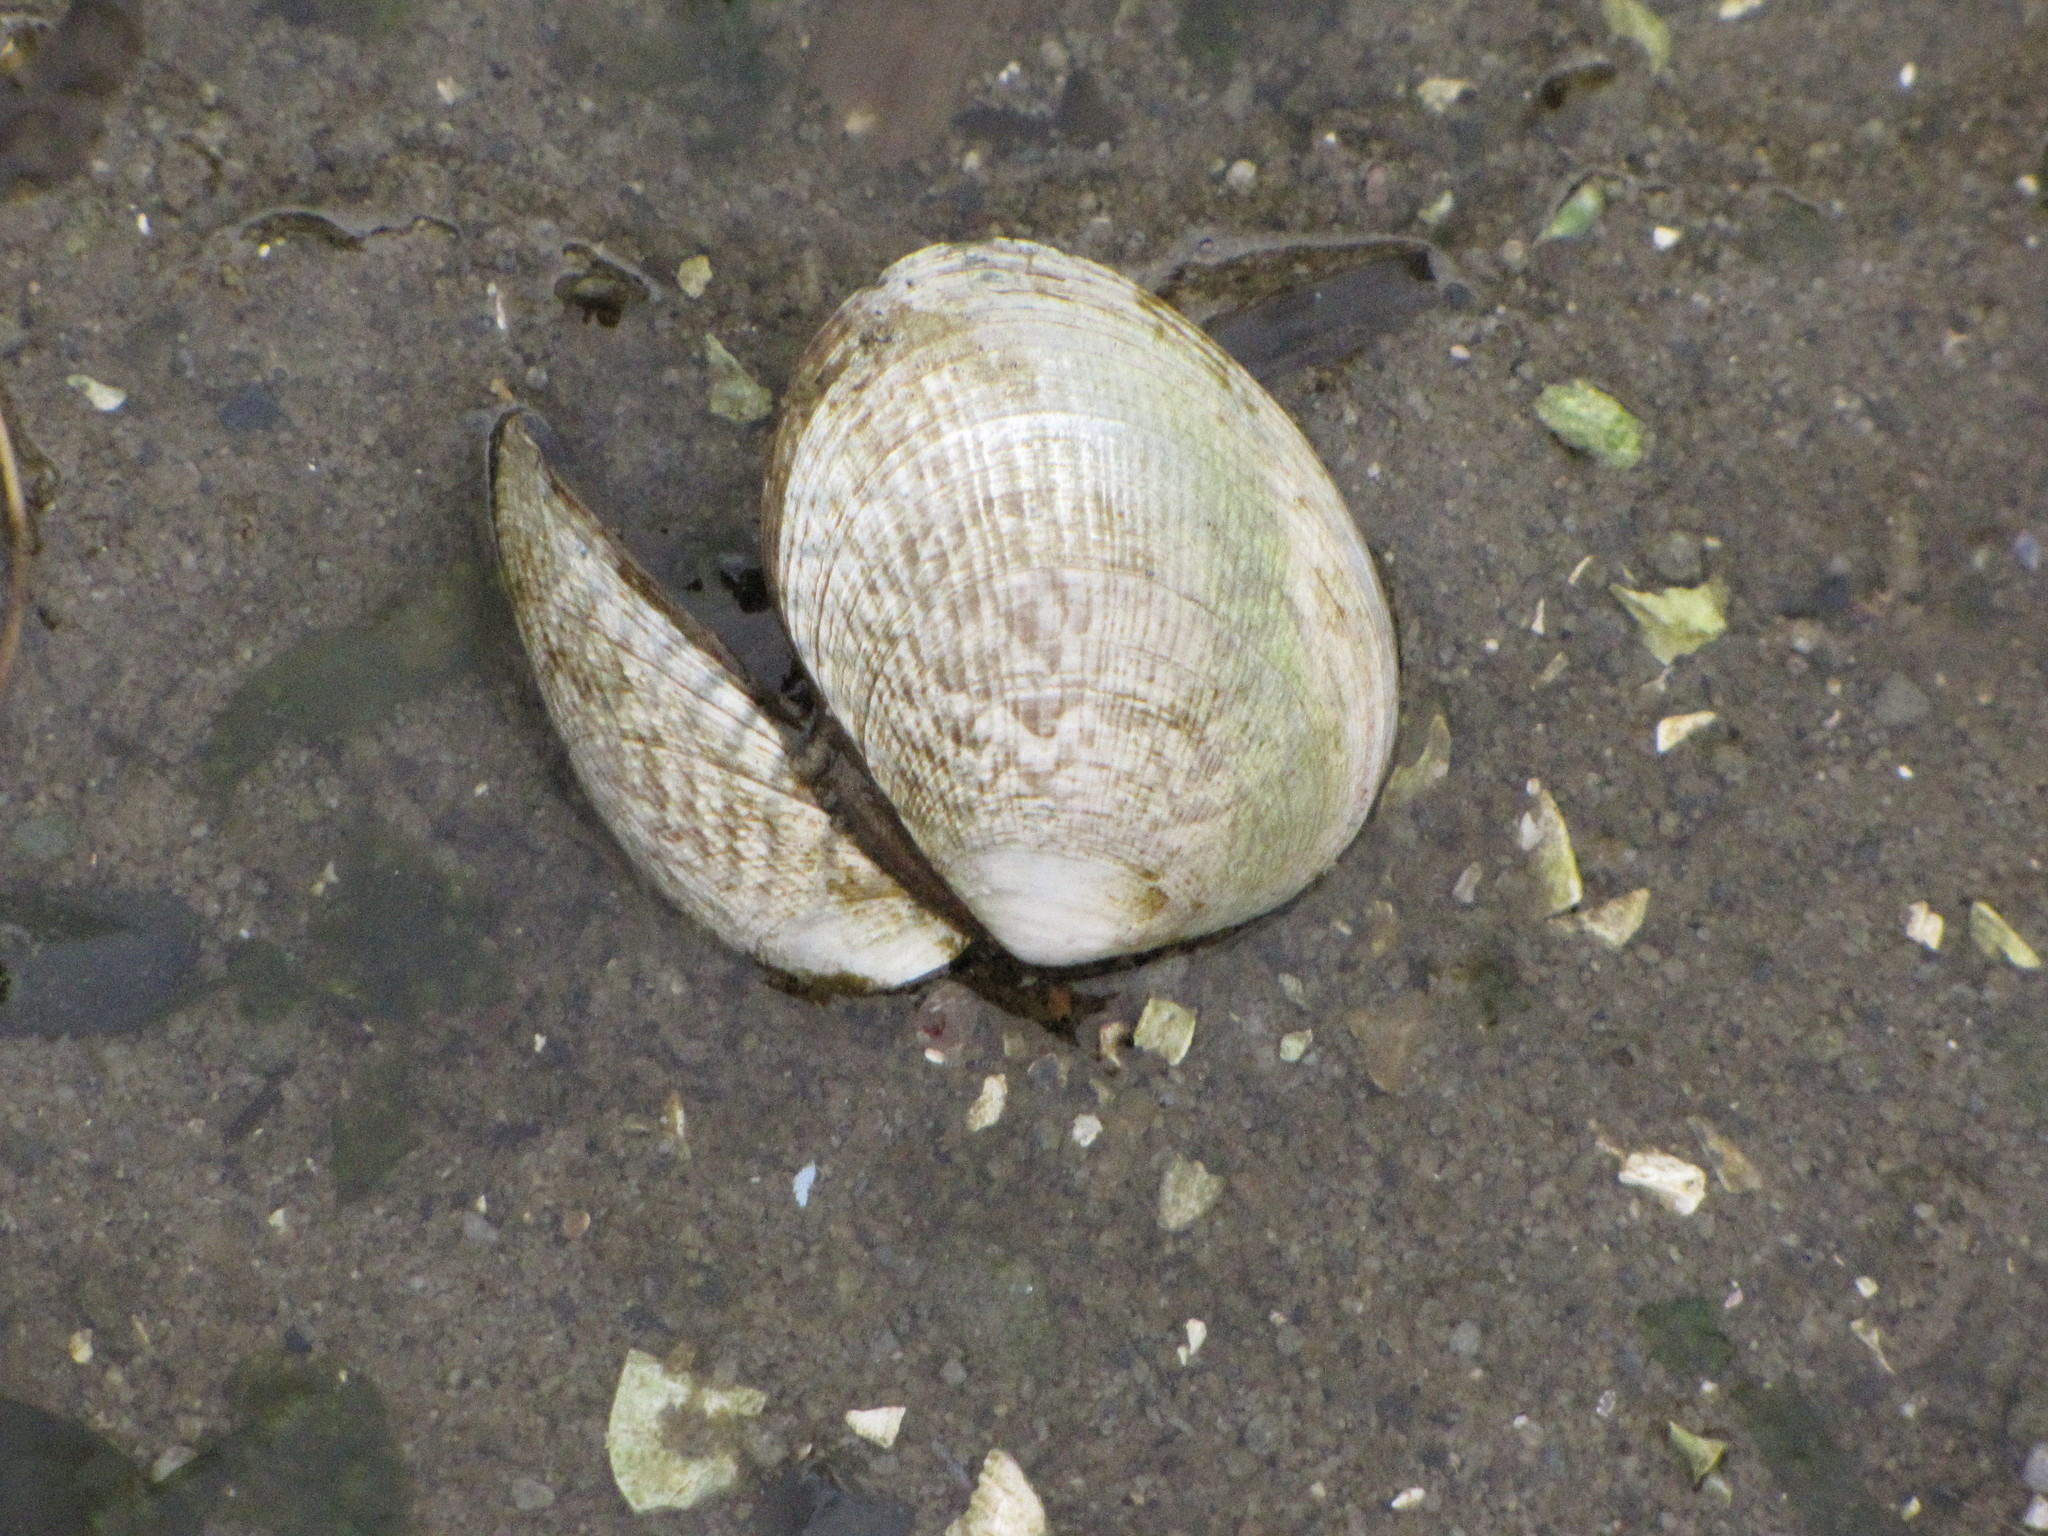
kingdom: Animalia
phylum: Mollusca
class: Bivalvia
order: Venerida
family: Veneridae
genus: Ruditapes
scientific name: Ruditapes philippinarum
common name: Manila clam
